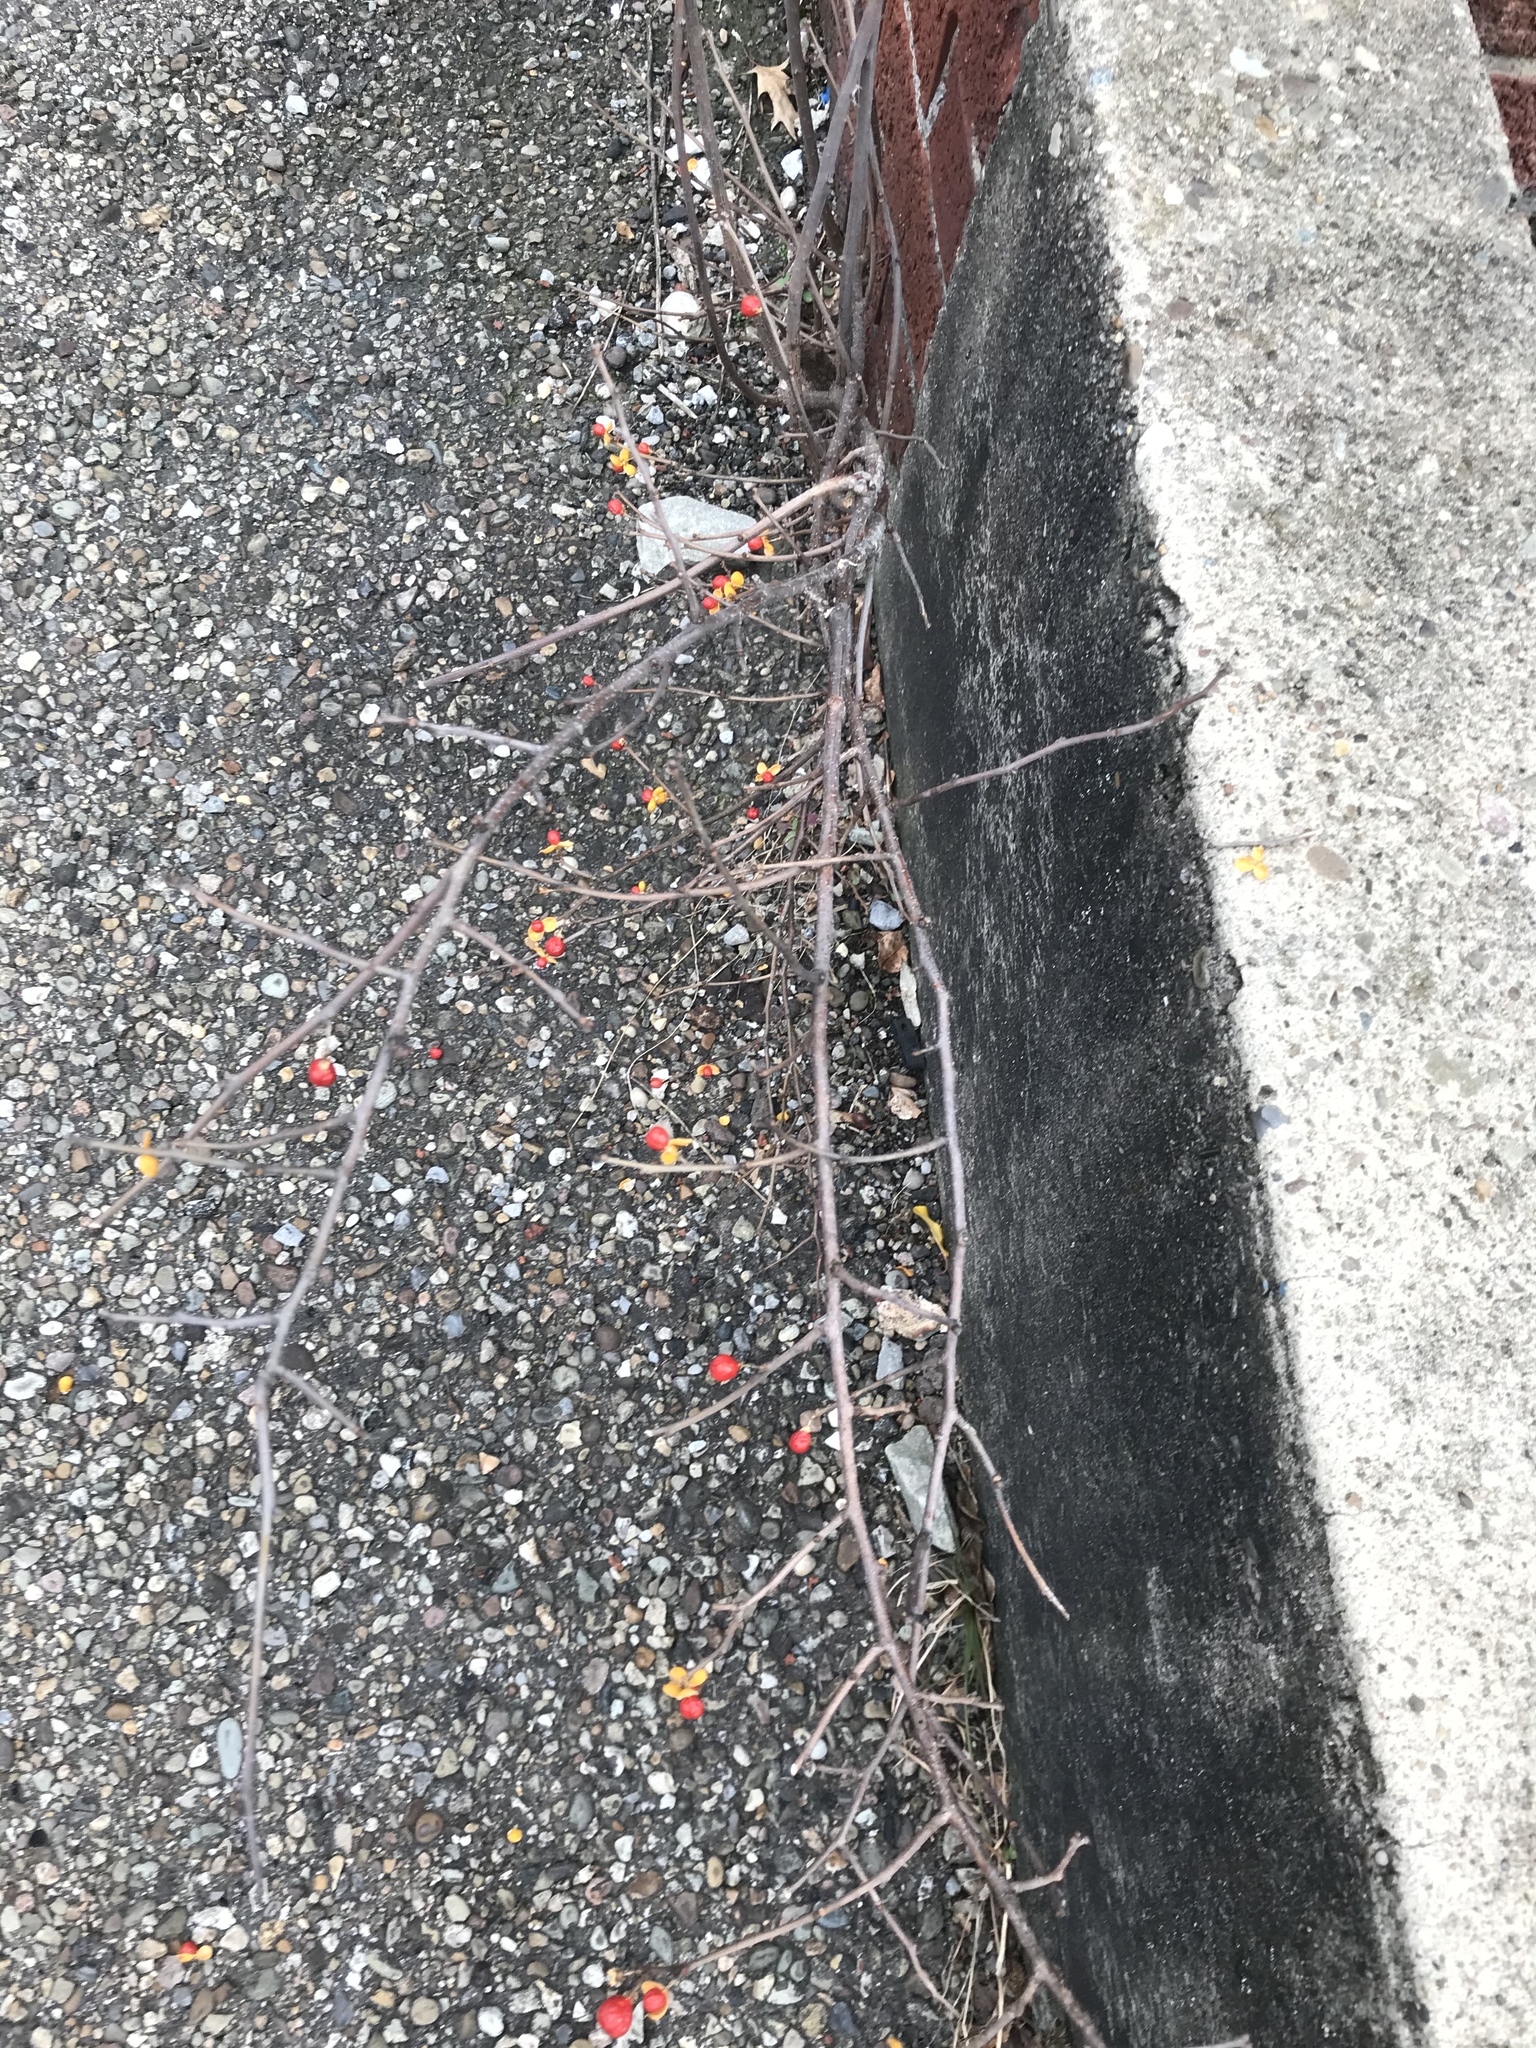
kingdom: Plantae
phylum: Tracheophyta
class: Magnoliopsida
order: Celastrales
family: Celastraceae
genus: Celastrus
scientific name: Celastrus orbiculatus
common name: Oriental bittersweet
